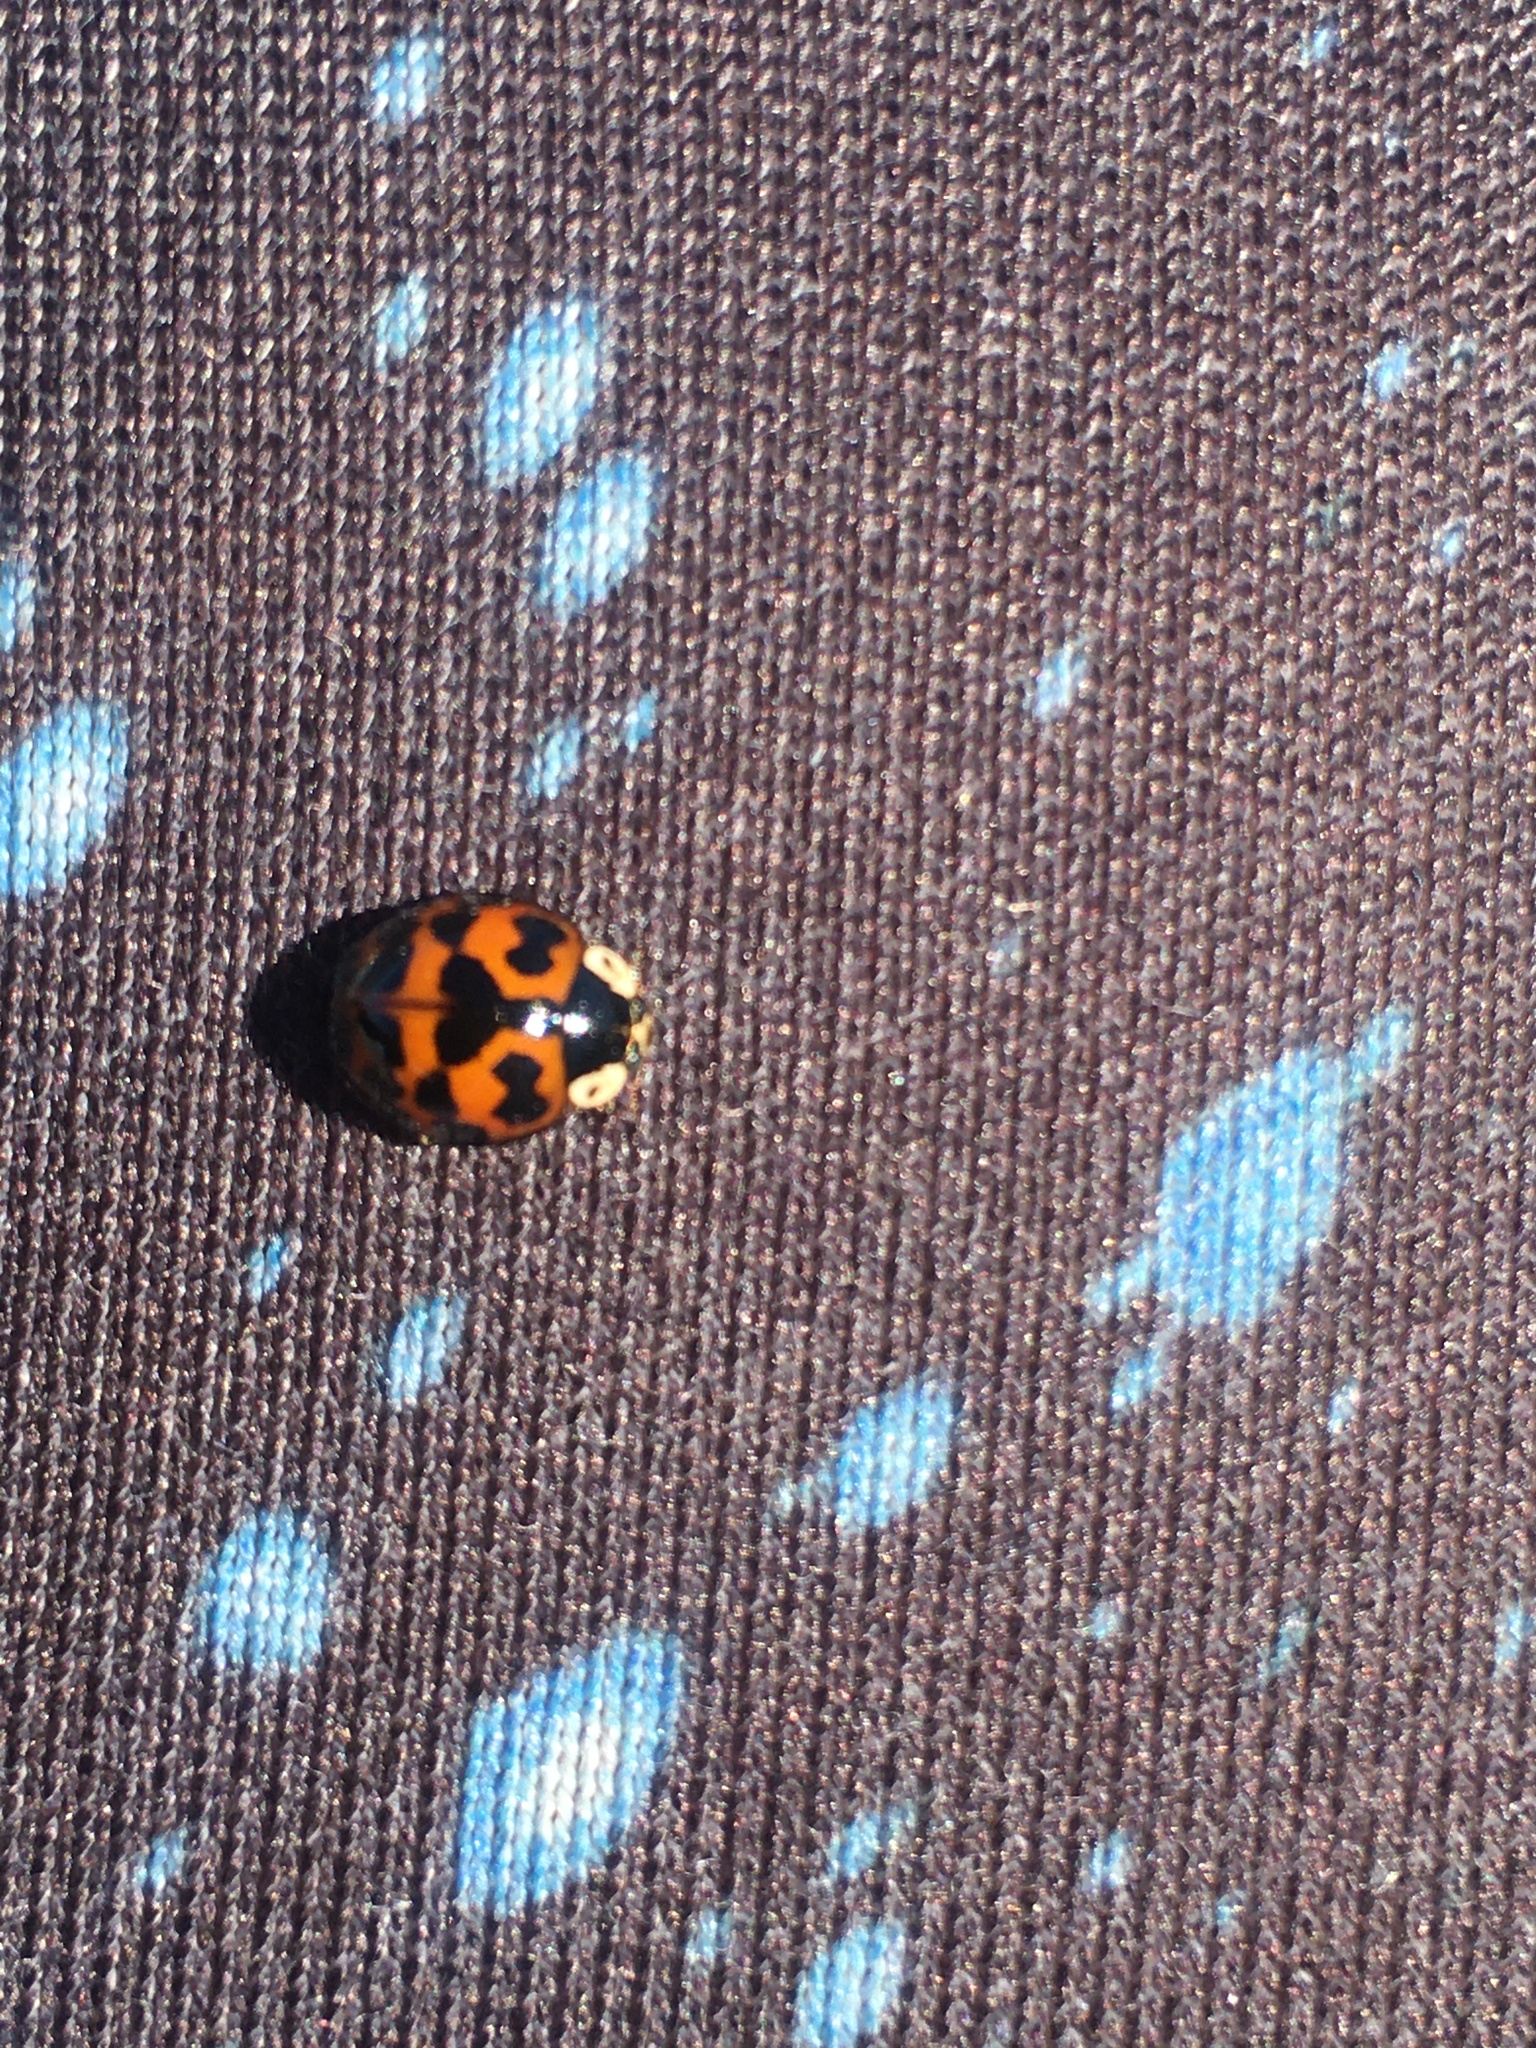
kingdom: Animalia
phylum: Arthropoda
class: Insecta
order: Coleoptera
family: Coccinellidae
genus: Harmonia
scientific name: Harmonia axyridis
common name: Harlequin ladybird
